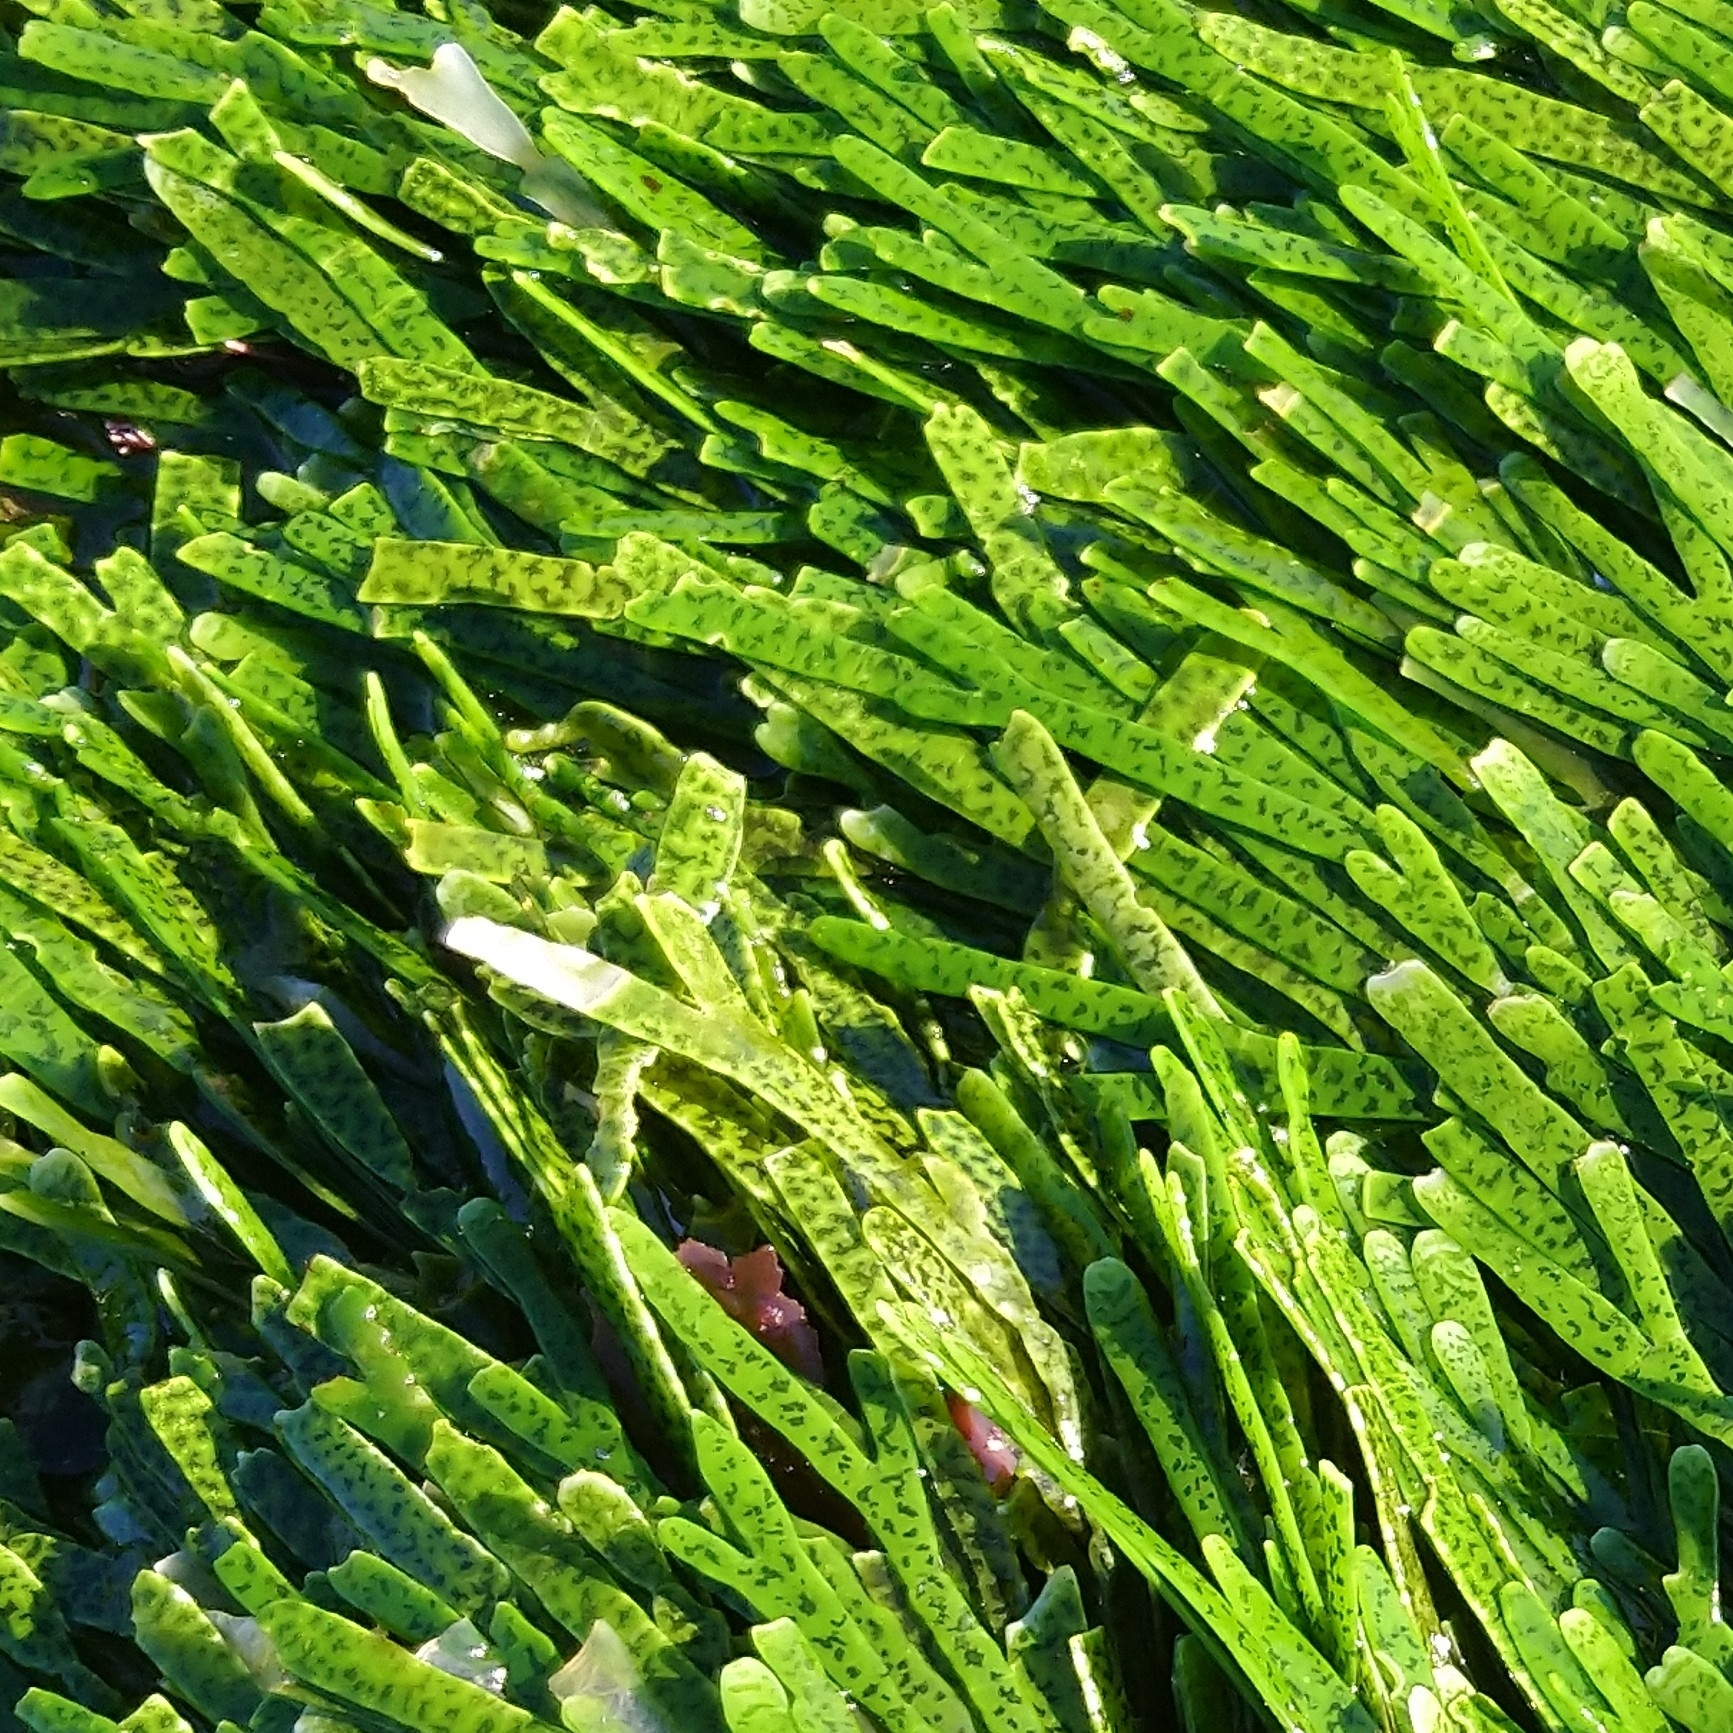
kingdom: Plantae
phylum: Chlorophyta
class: Ulvophyceae
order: Bryopsidales
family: Caulerpaceae
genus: Caulerpa
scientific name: Caulerpa filiformis
